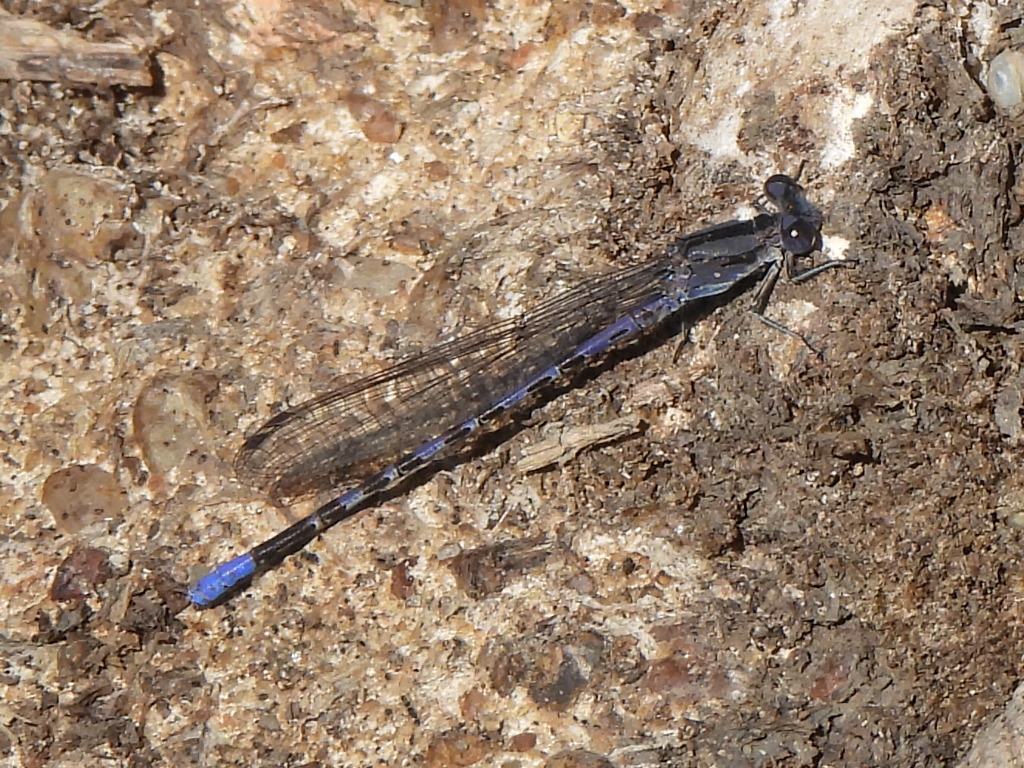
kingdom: Animalia
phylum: Arthropoda
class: Insecta
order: Odonata
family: Coenagrionidae
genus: Argia
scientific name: Argia immunda
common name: Kiowa dancer
